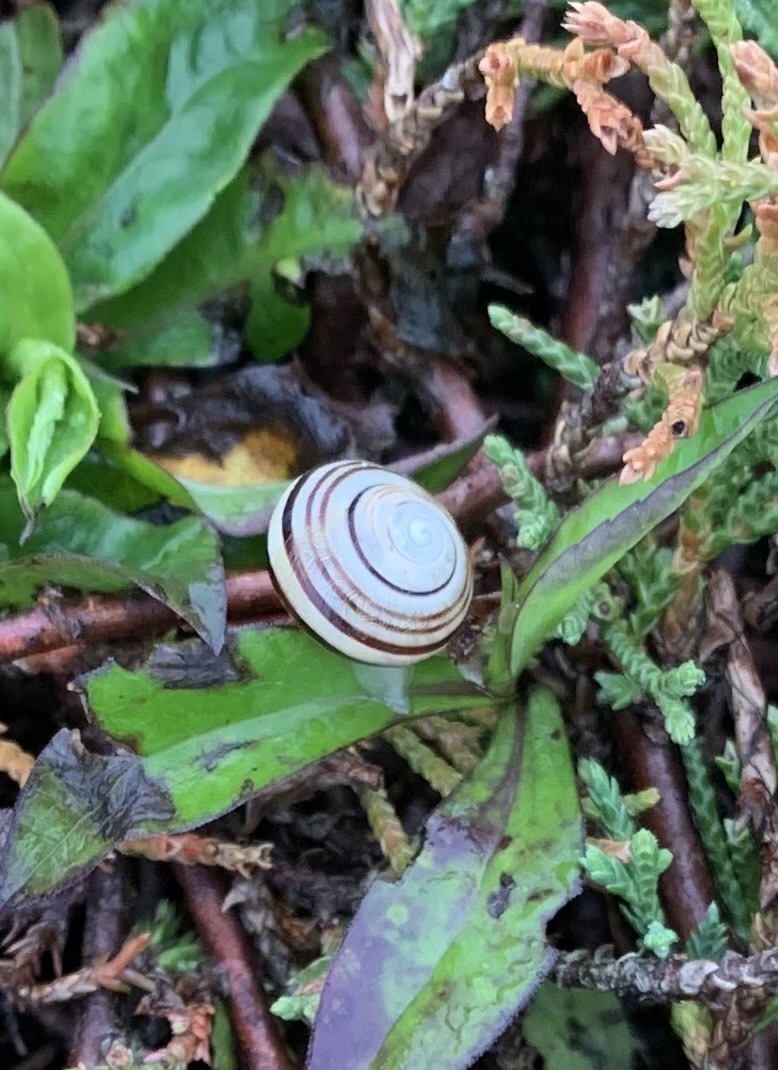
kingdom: Animalia
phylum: Mollusca
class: Gastropoda
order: Stylommatophora
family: Helicidae
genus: Cepaea
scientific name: Cepaea
